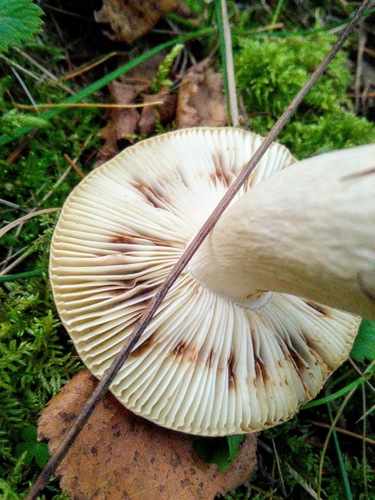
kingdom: Fungi
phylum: Basidiomycota
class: Agaricomycetes
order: Russulales
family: Russulaceae
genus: Russula
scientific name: Russula
